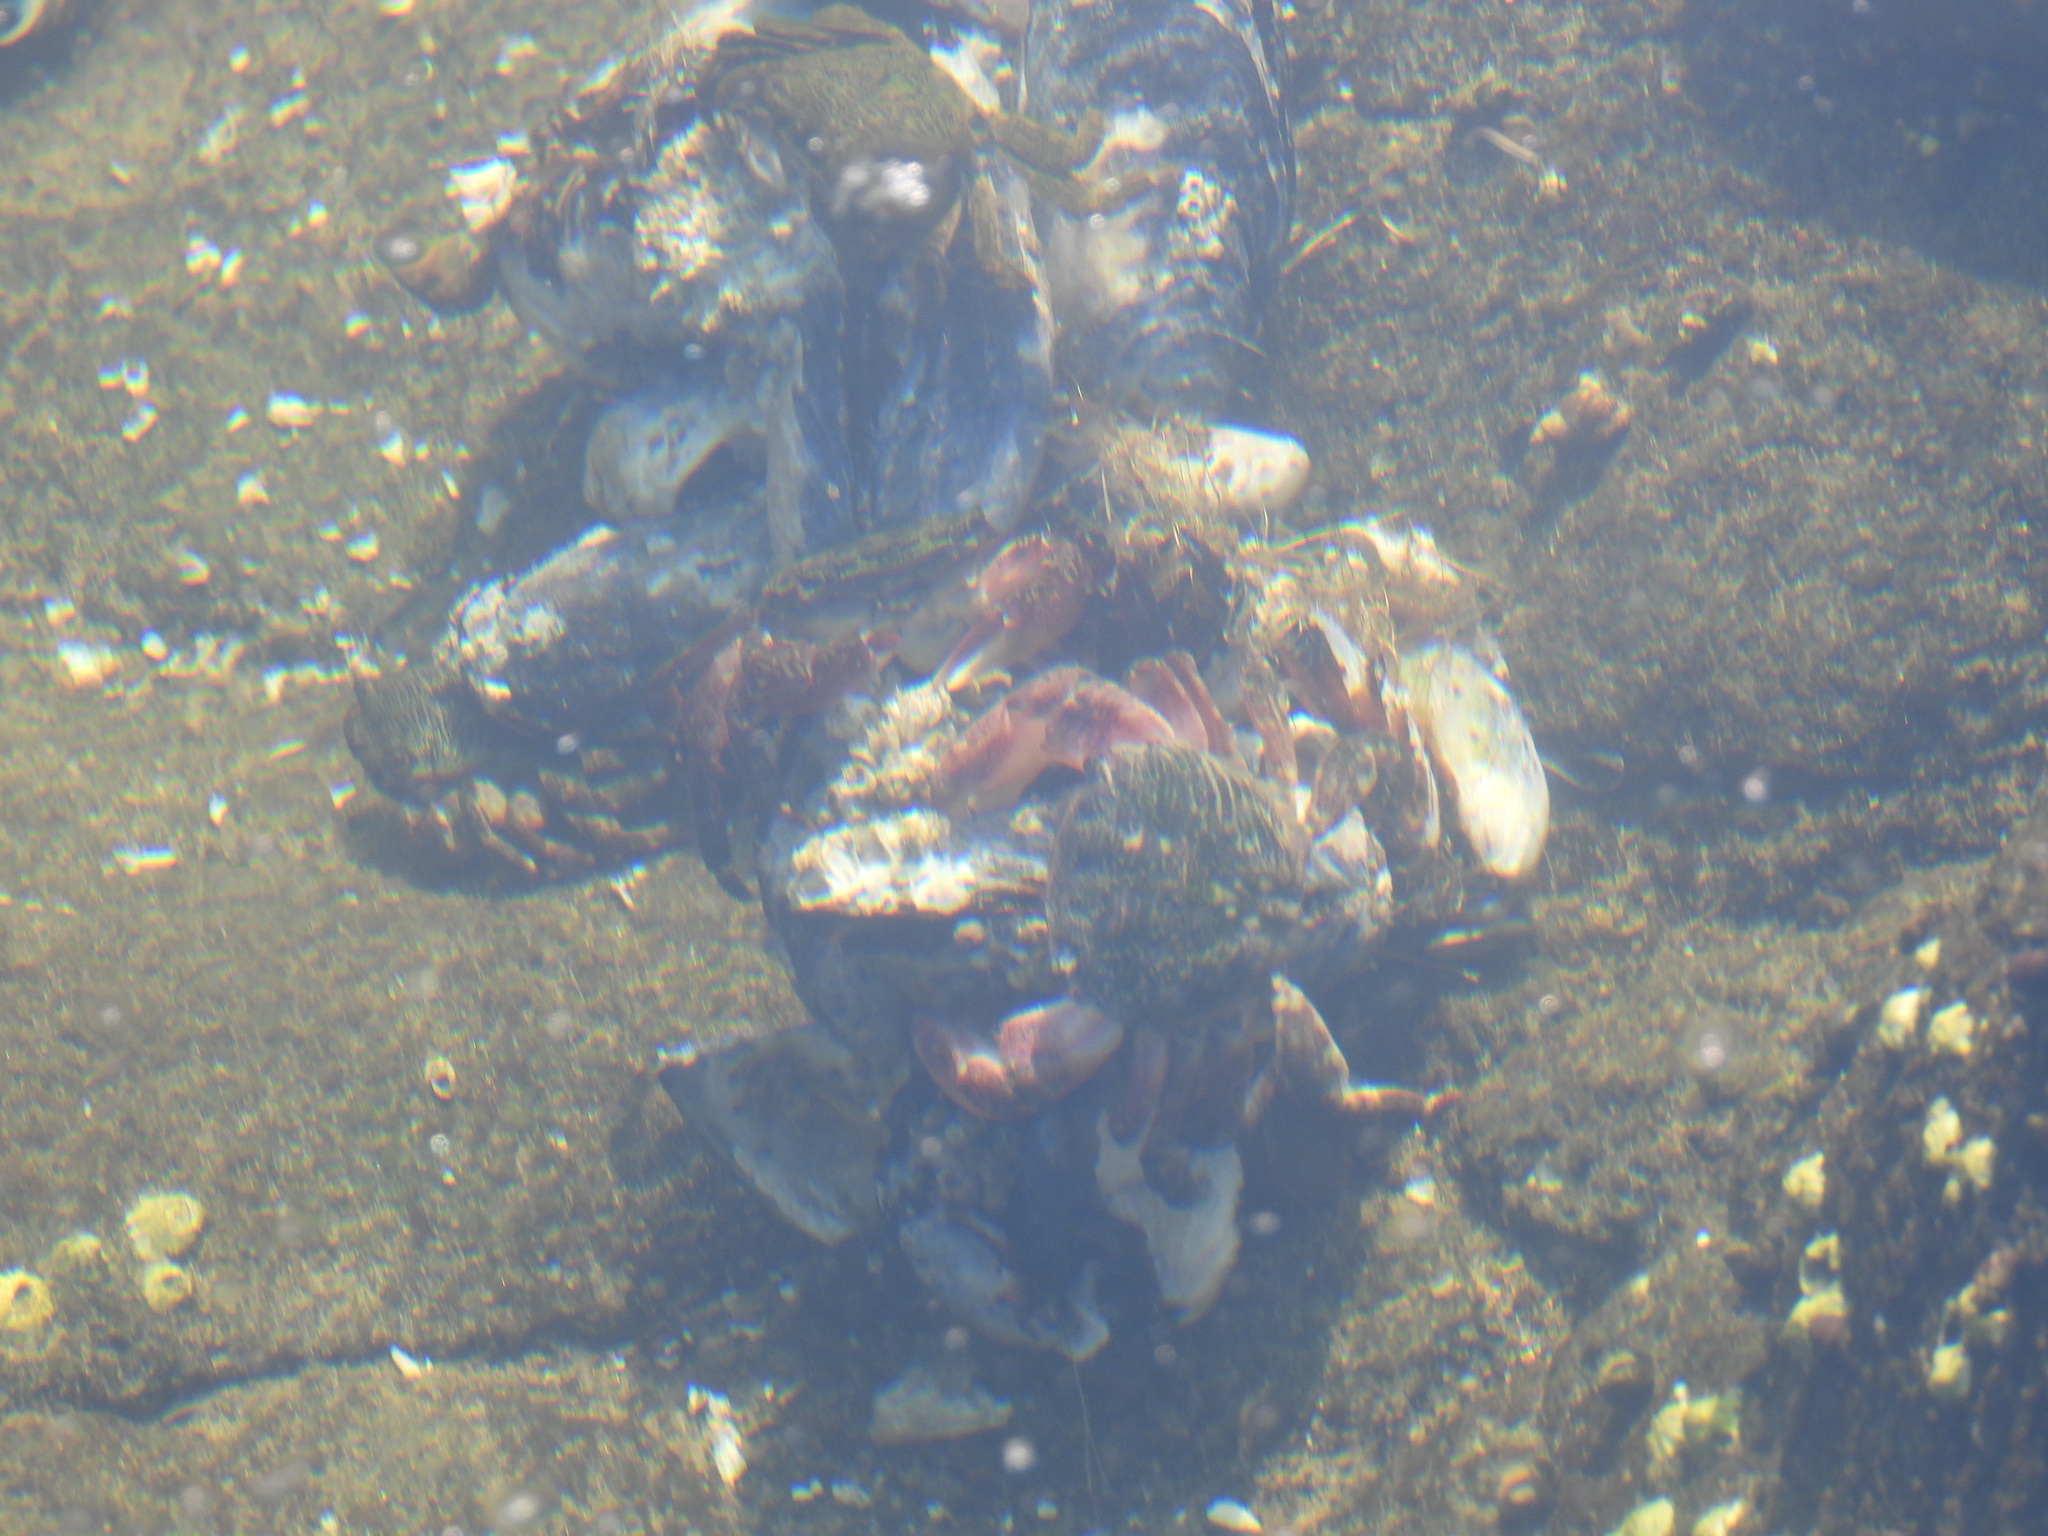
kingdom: Animalia
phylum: Arthropoda
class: Malacostraca
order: Decapoda
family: Grapsidae
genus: Pachygrapsus
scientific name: Pachygrapsus crassipes
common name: Striped shore crab
